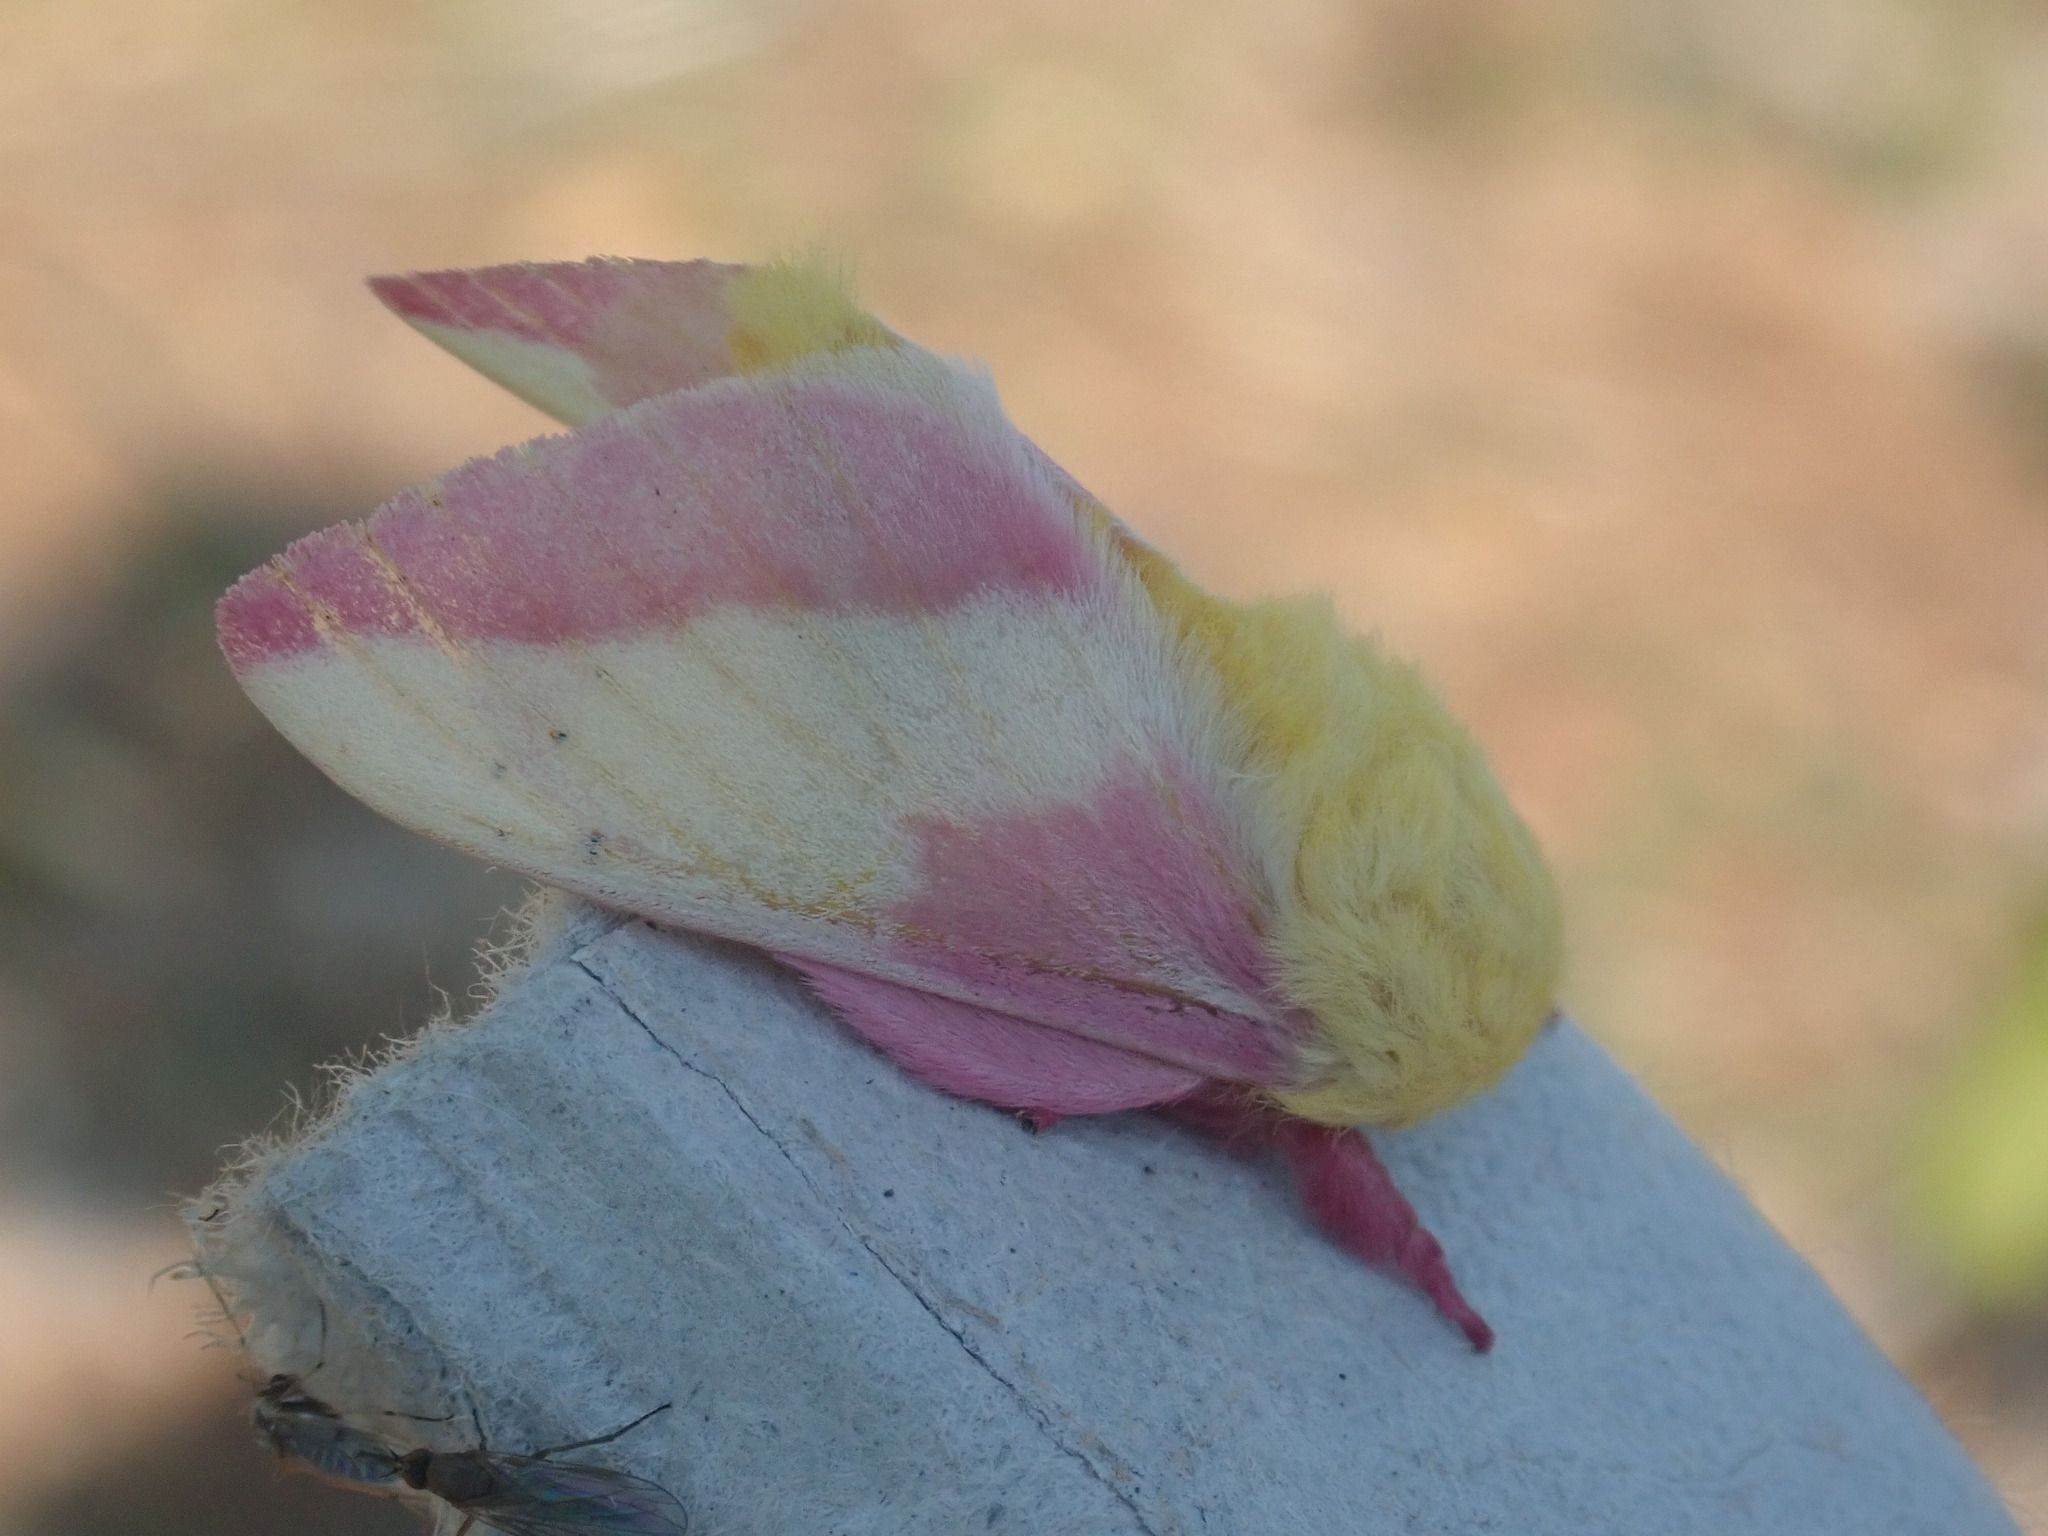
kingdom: Animalia
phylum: Arthropoda
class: Insecta
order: Lepidoptera
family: Saturniidae
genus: Dryocampa
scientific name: Dryocampa rubicunda
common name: Rosy maple moth
